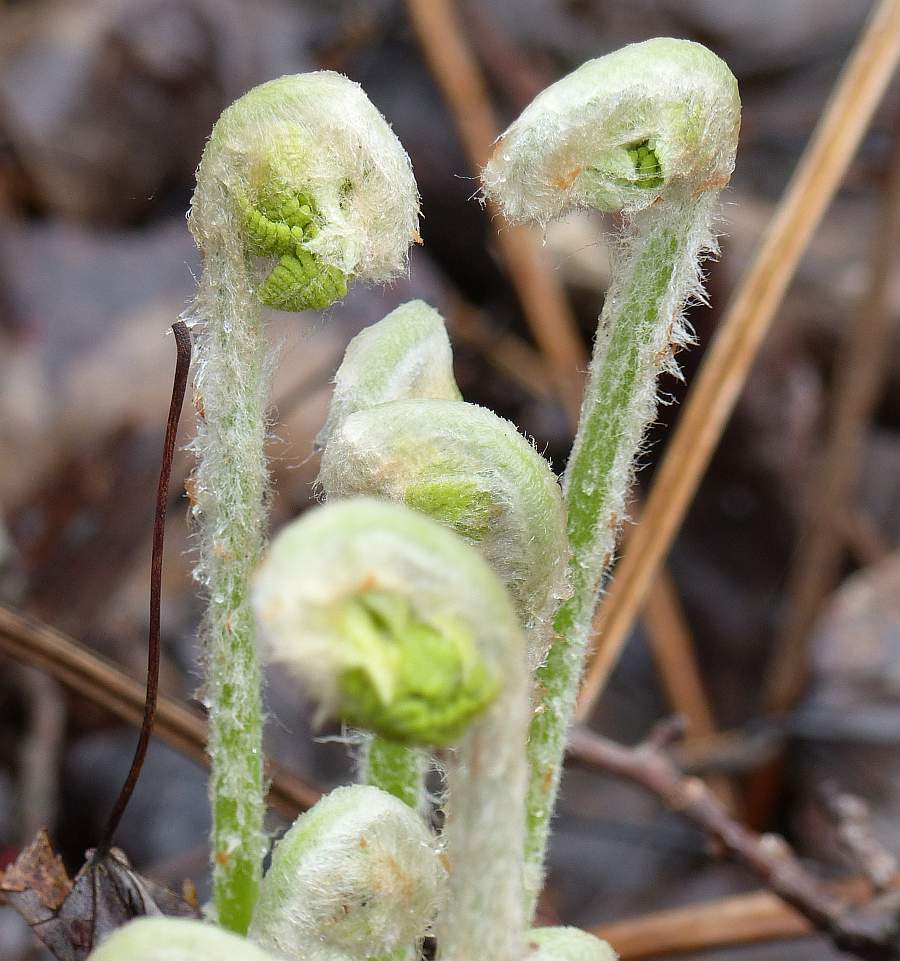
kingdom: Plantae
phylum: Tracheophyta
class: Polypodiopsida
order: Osmundales
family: Osmundaceae
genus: Osmundastrum
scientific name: Osmundastrum cinnamomeum
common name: Cinnamon fern
